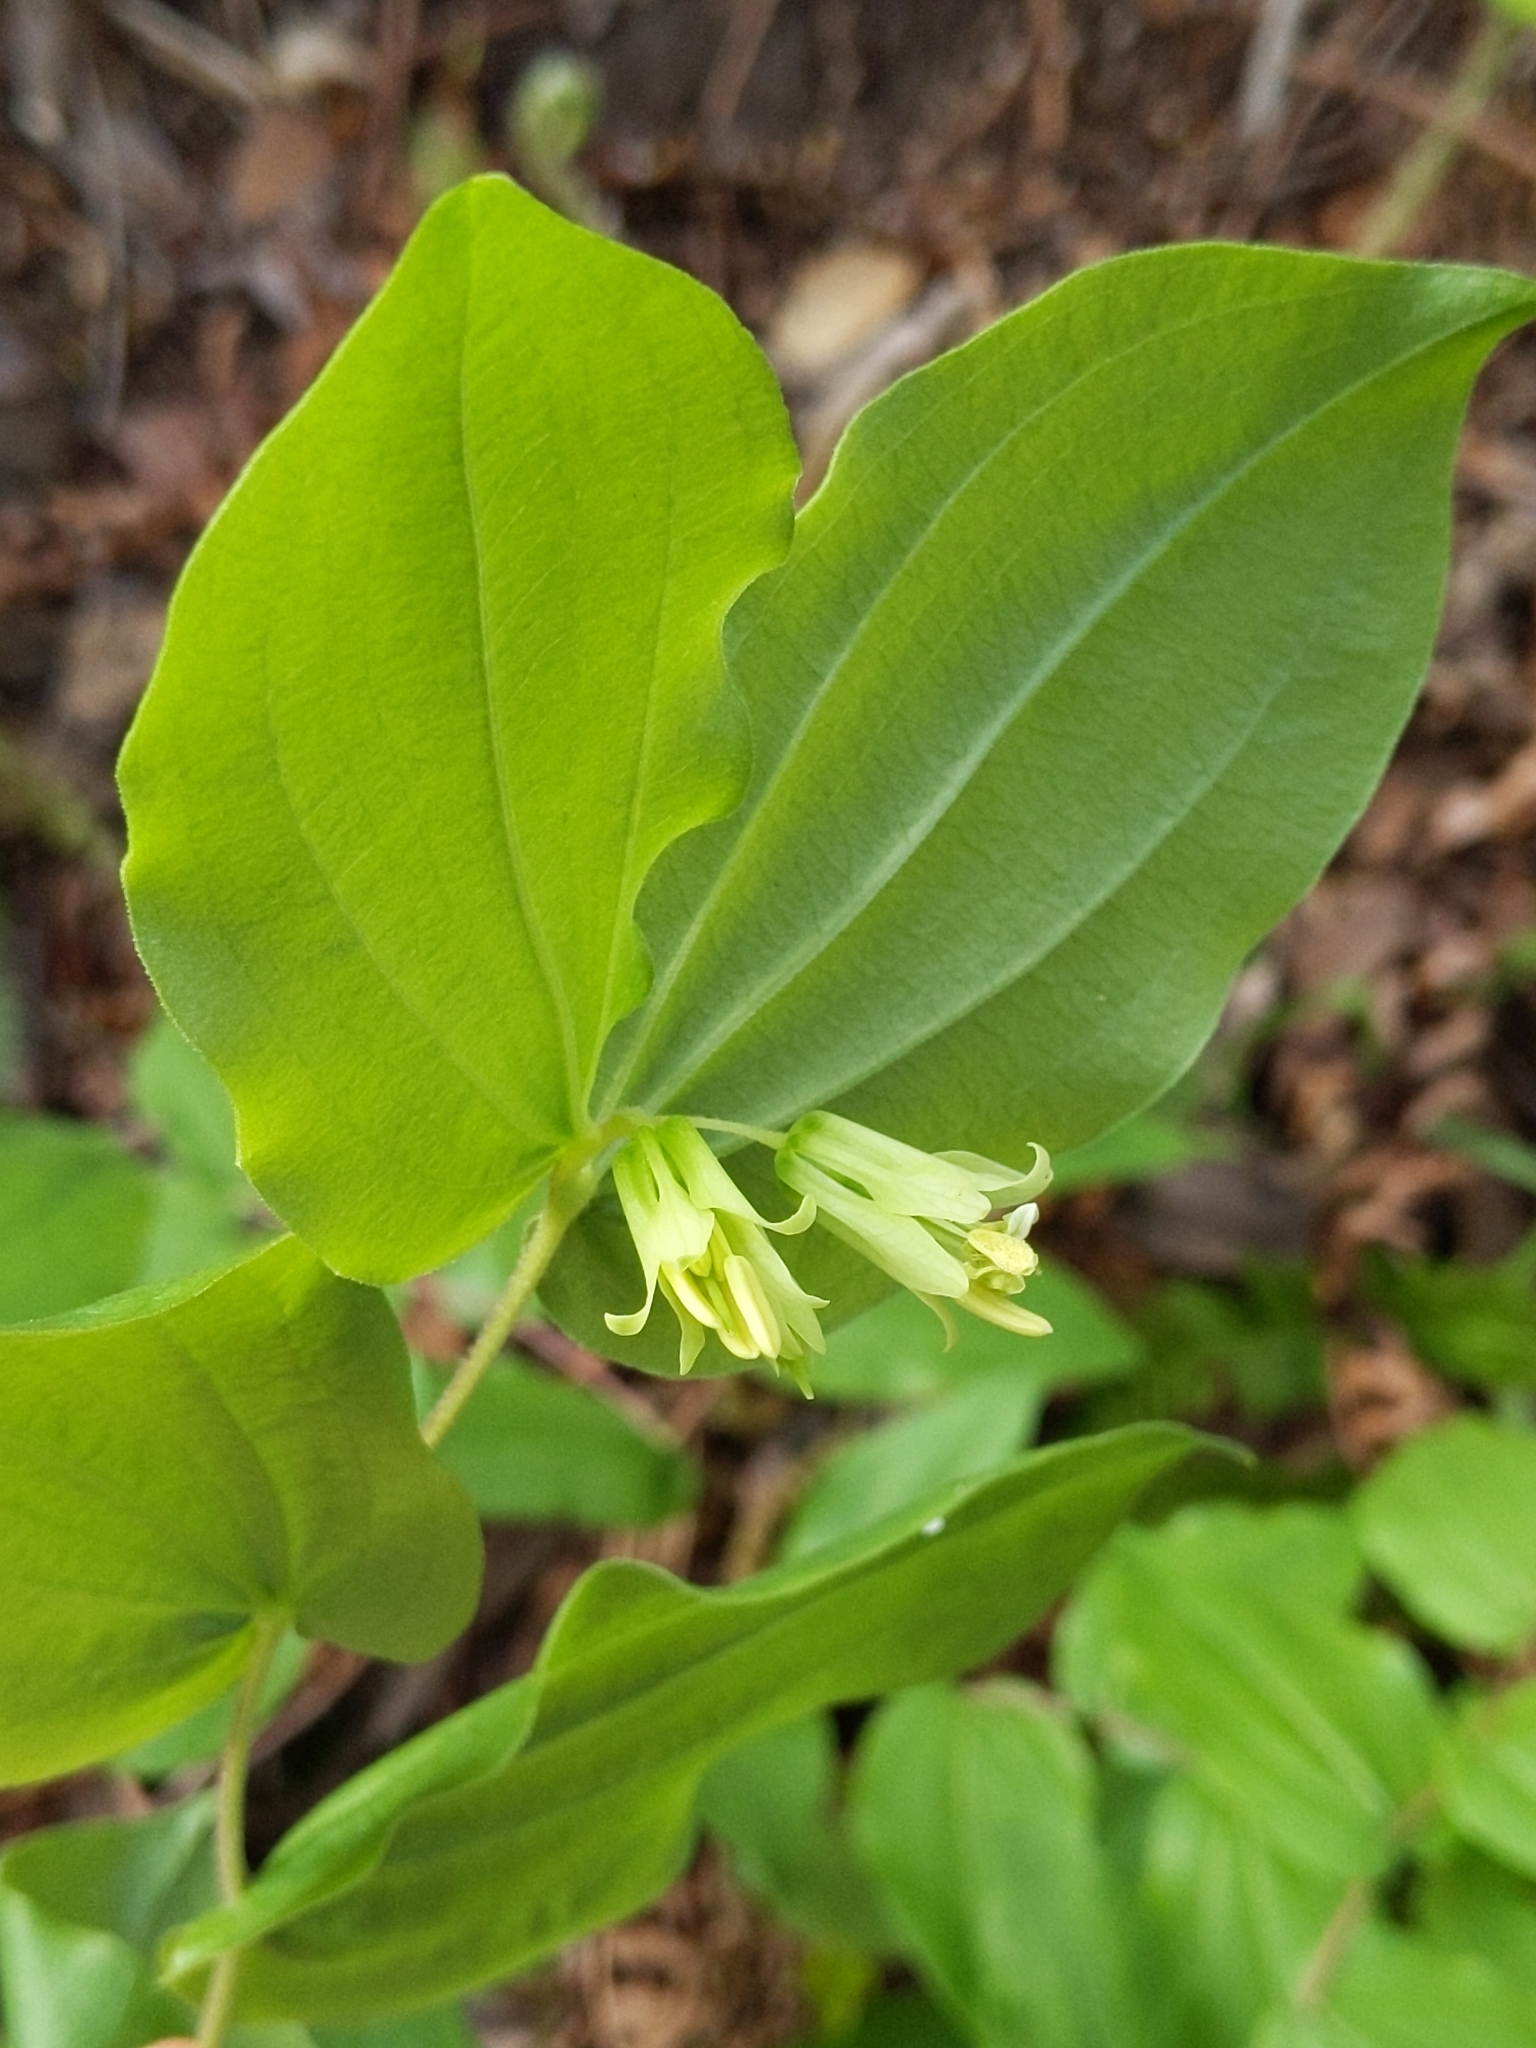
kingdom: Plantae
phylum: Tracheophyta
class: Liliopsida
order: Liliales
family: Liliaceae
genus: Prosartes
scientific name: Prosartes hookeri
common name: Fairy-bells
